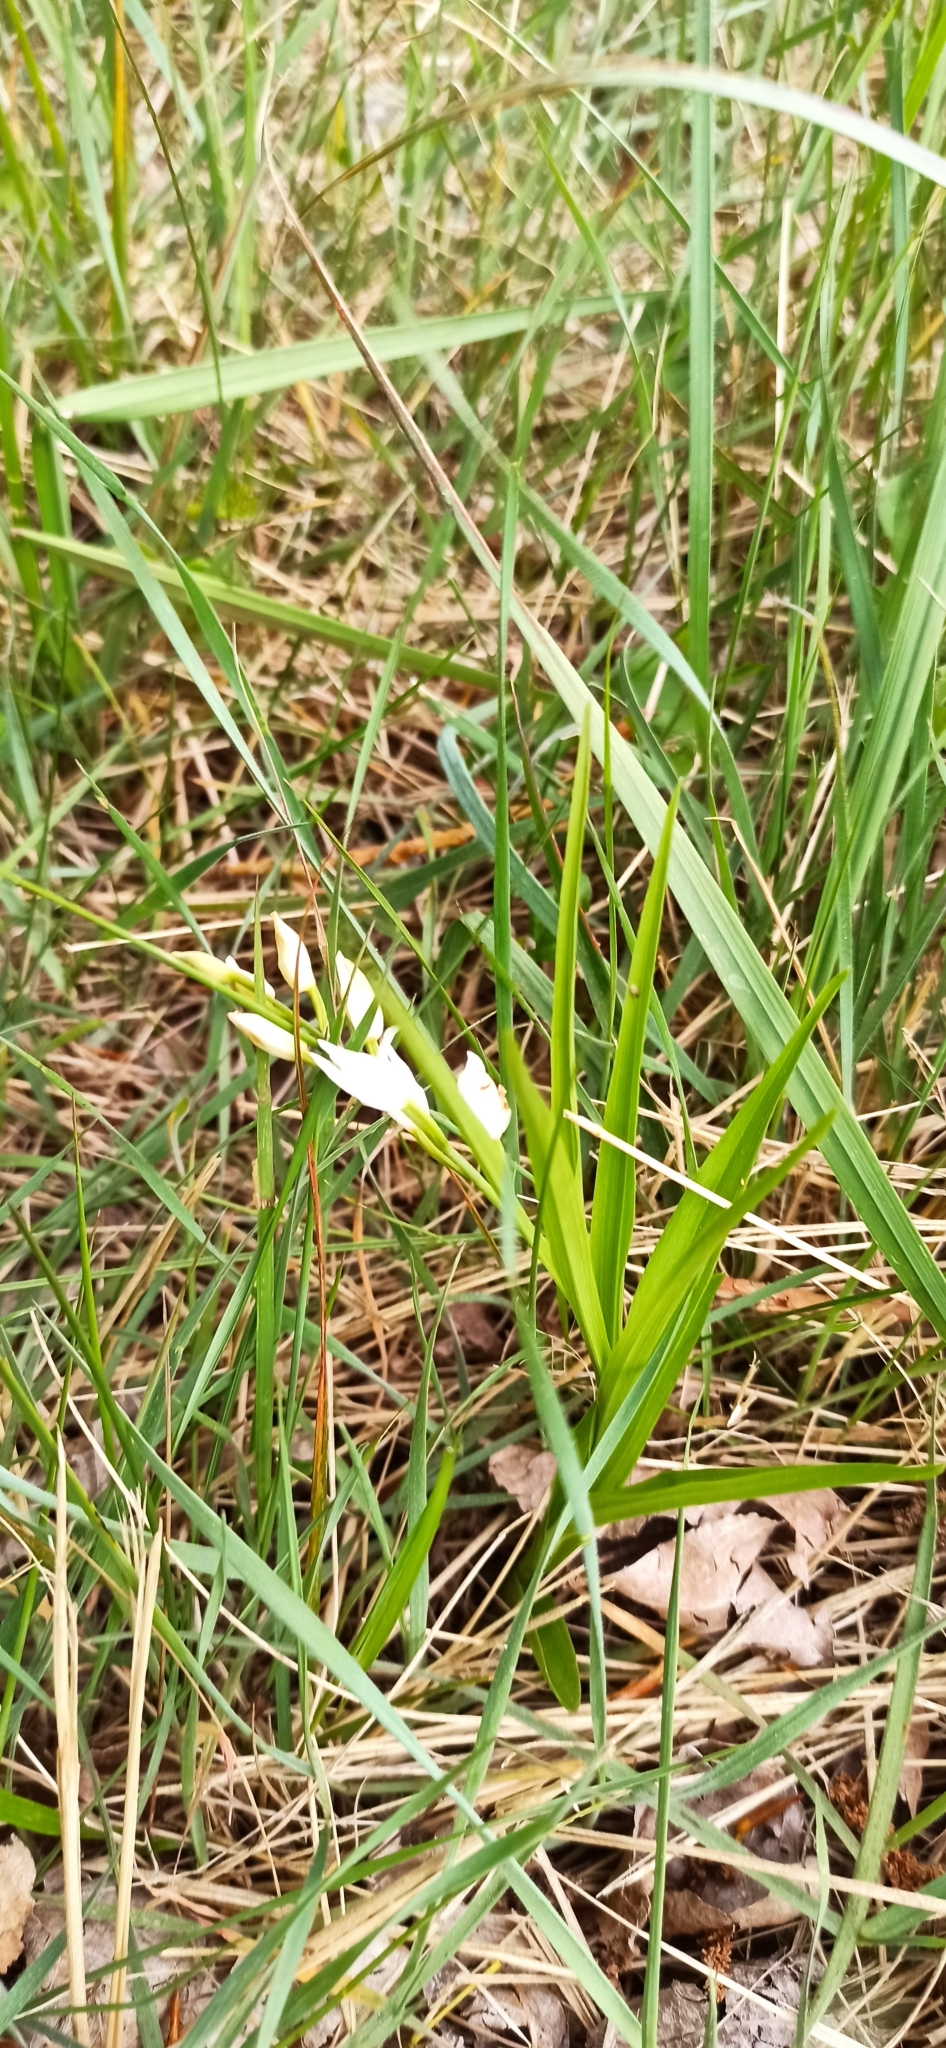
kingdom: Plantae
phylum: Tracheophyta
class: Liliopsida
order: Asparagales
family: Orchidaceae
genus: Cephalanthera
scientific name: Cephalanthera longifolia
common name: Narrow-leaved helleborine
